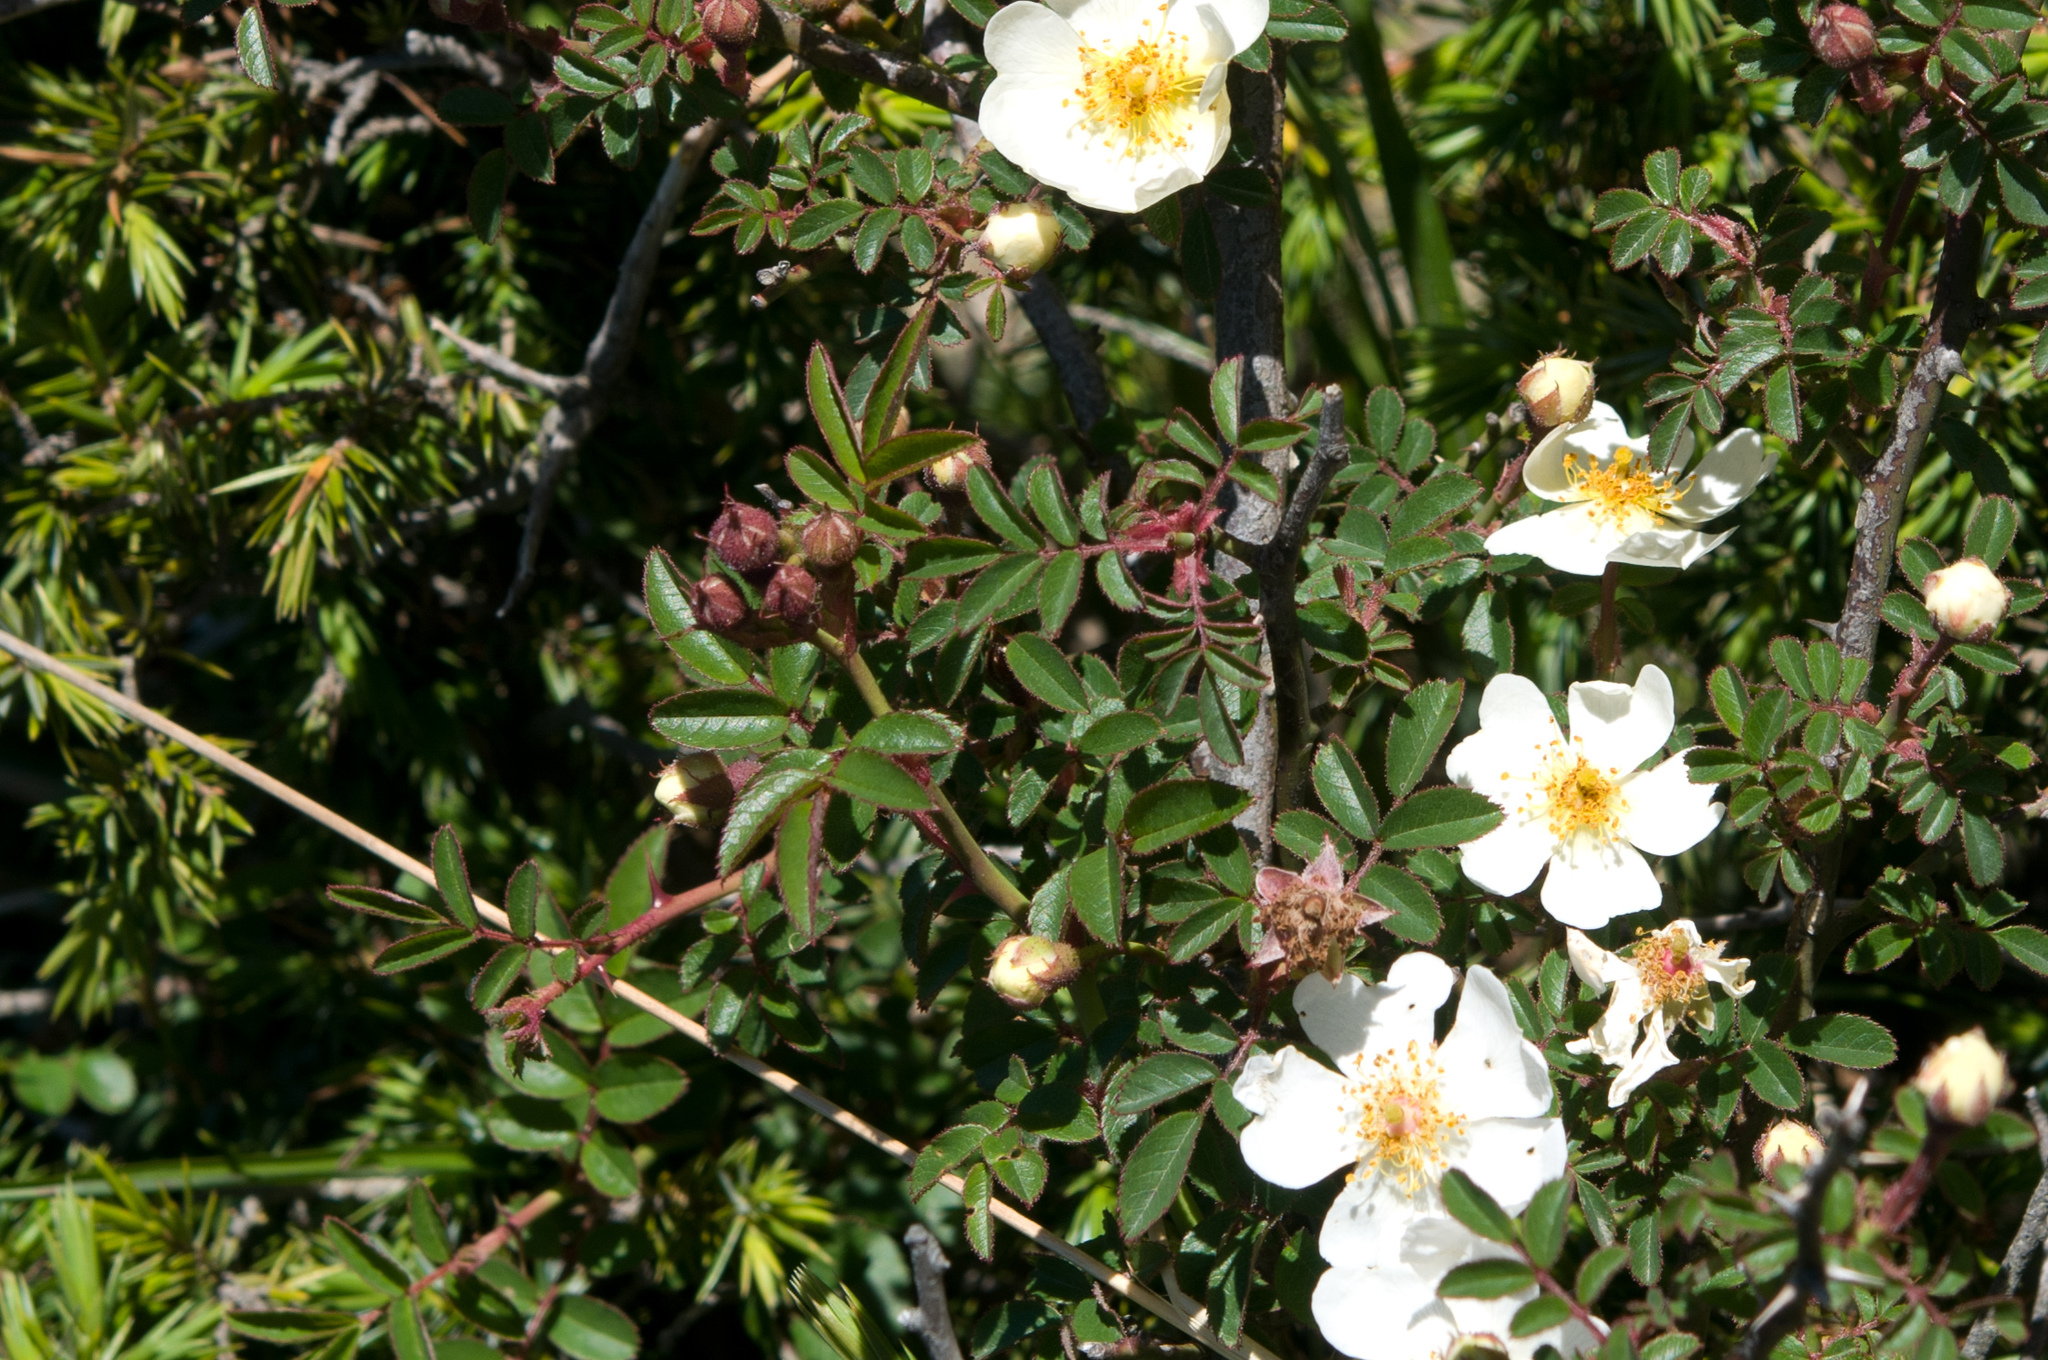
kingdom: Plantae
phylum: Tracheophyta
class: Magnoliopsida
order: Rosales
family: Rosaceae
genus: Rosa
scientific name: Rosa transmorrisonensis
